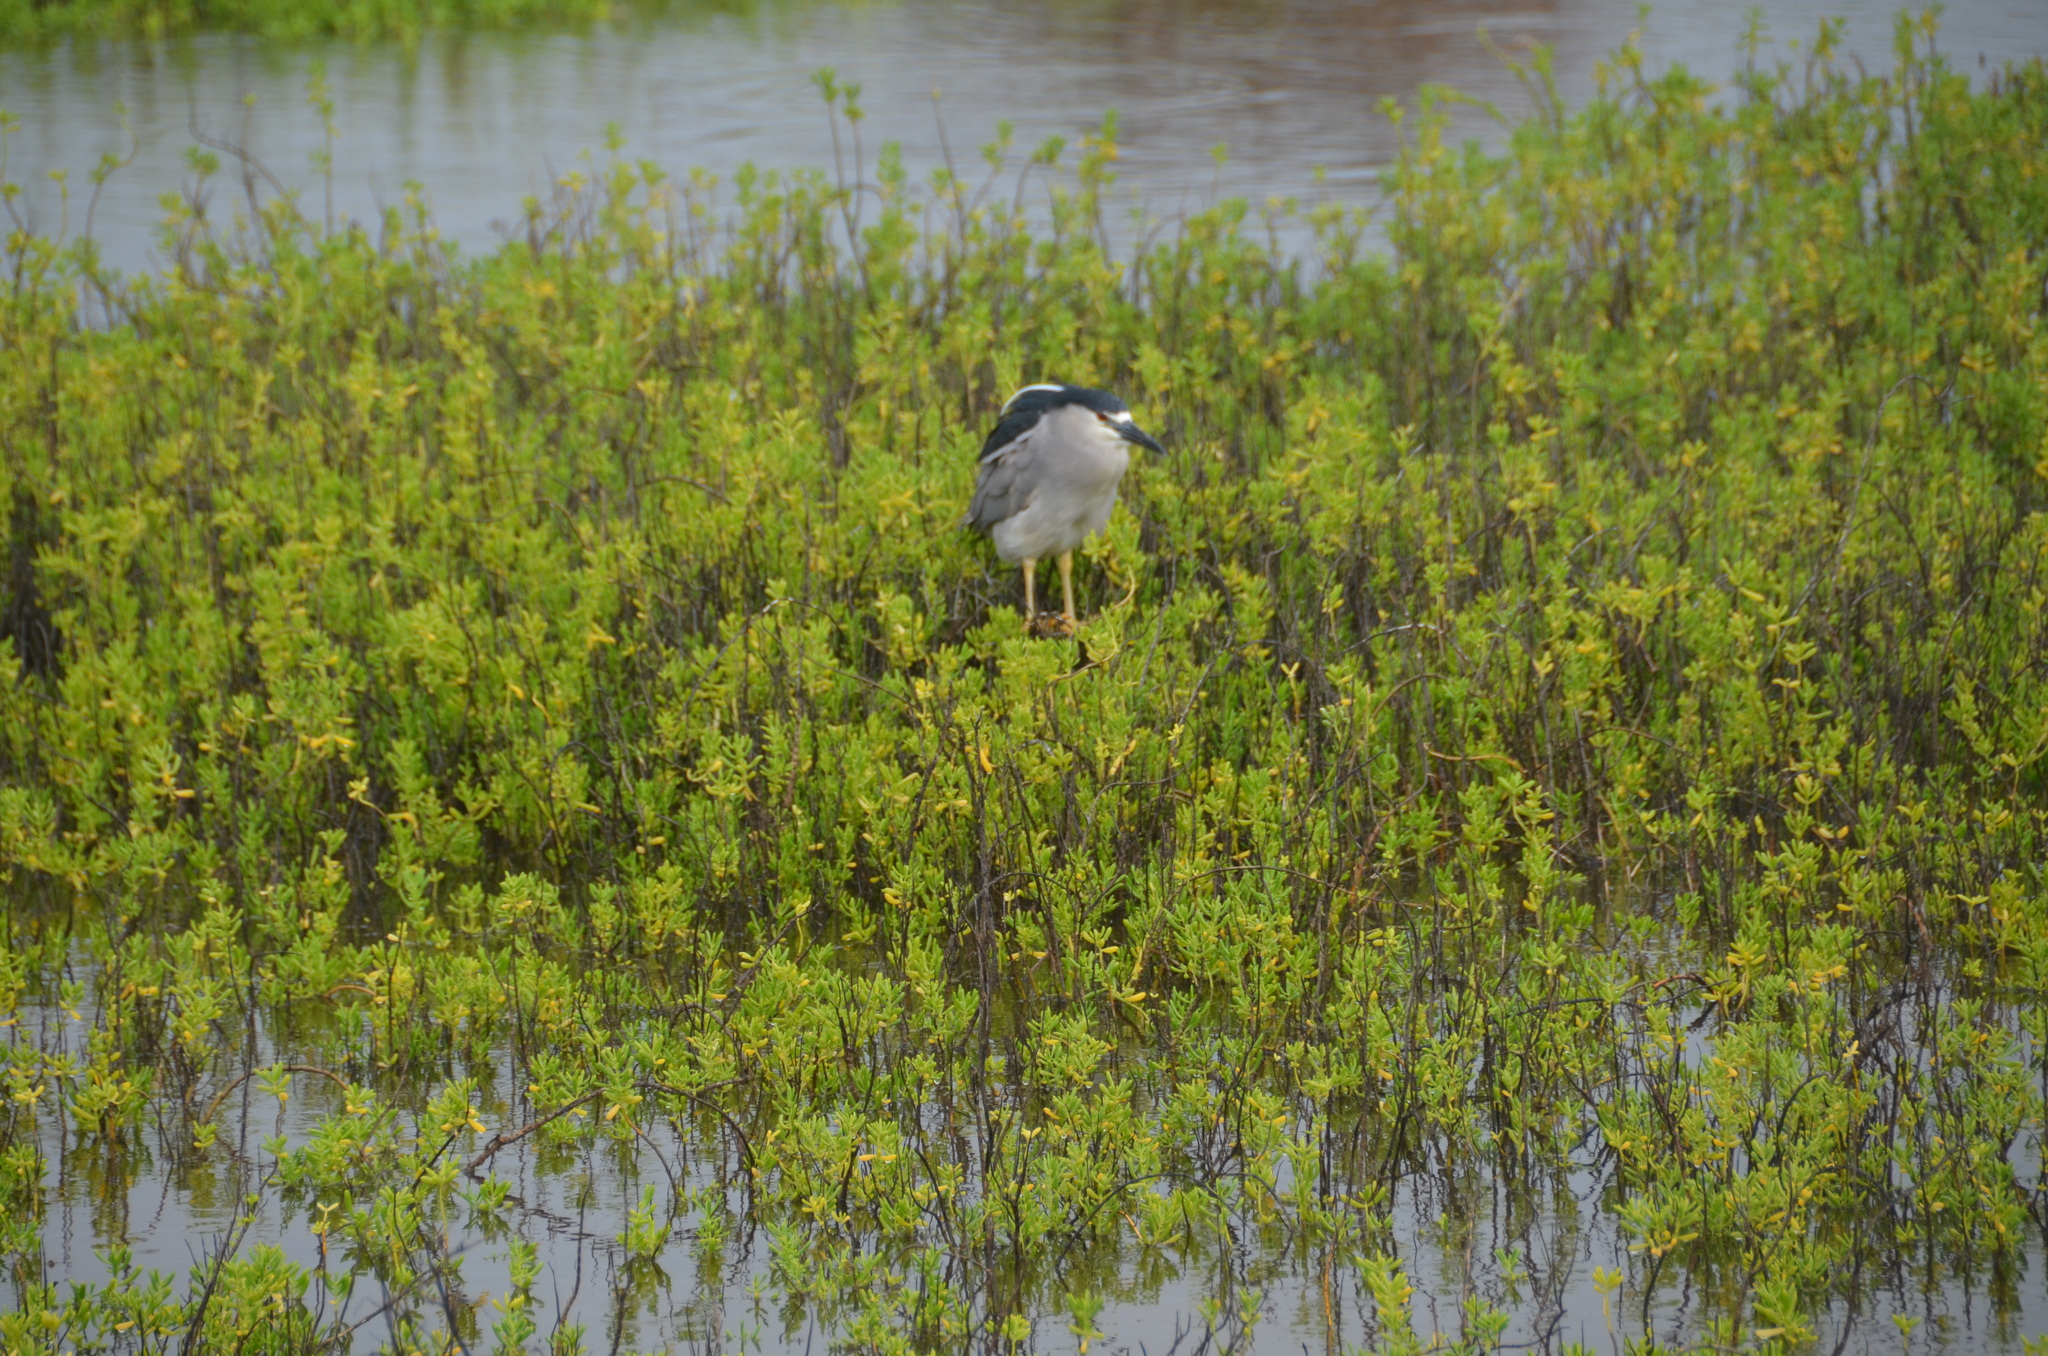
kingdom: Animalia
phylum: Chordata
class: Aves
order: Pelecaniformes
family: Ardeidae
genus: Nycticorax
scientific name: Nycticorax nycticorax
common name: Black-crowned night heron
